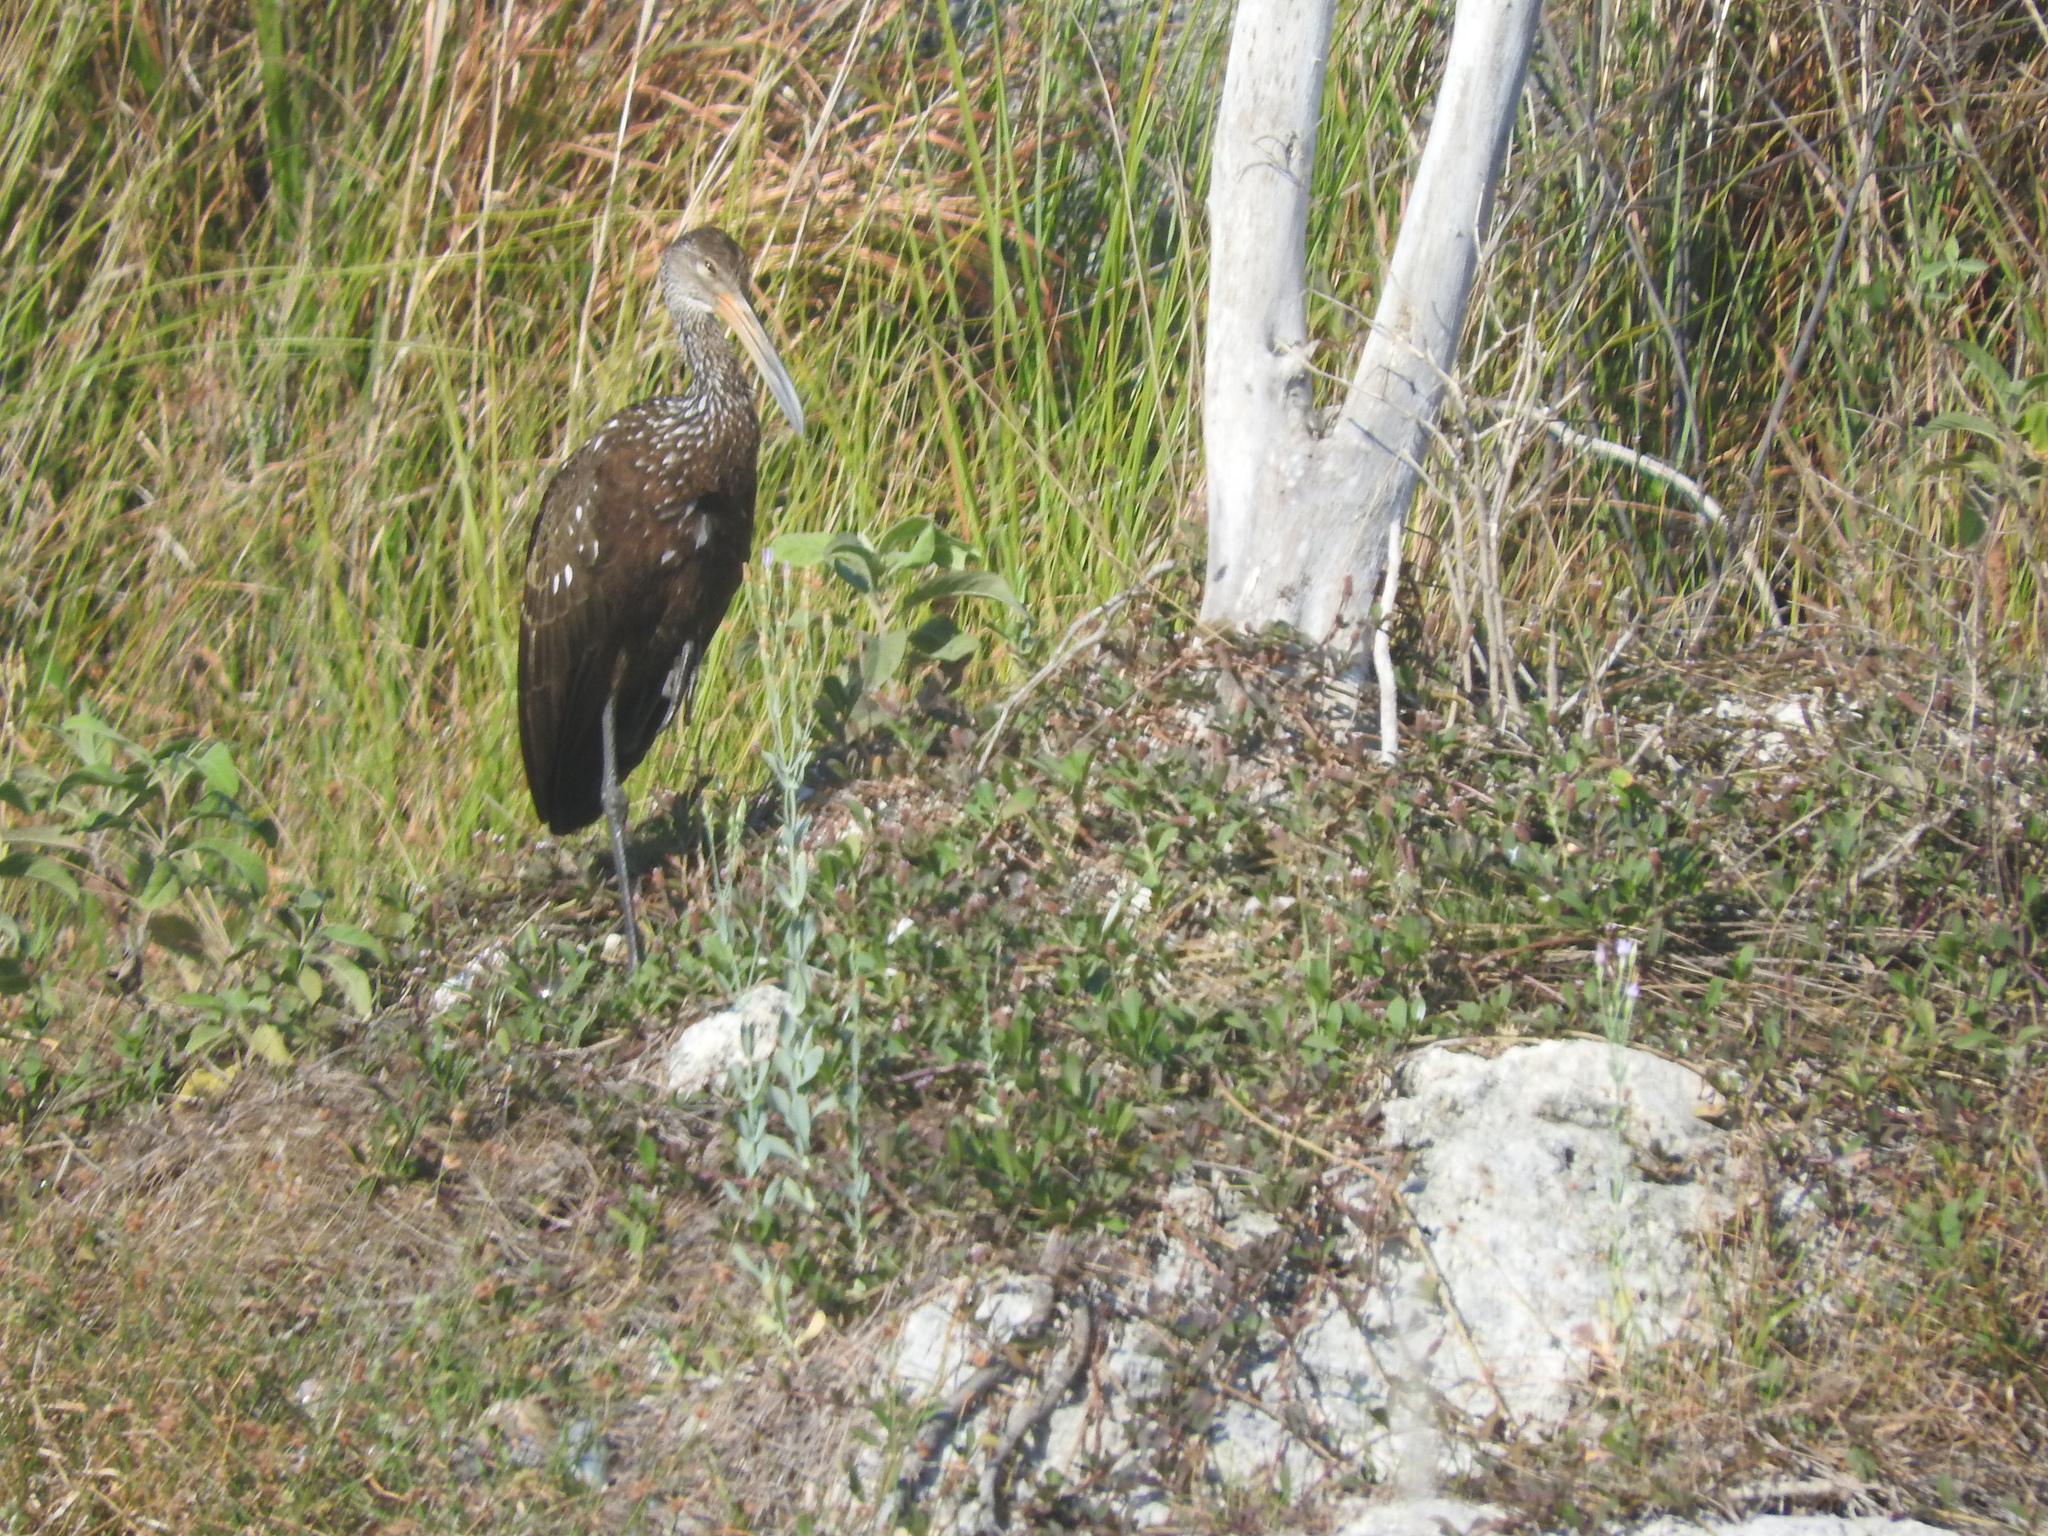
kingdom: Animalia
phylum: Chordata
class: Aves
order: Gruiformes
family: Aramidae
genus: Aramus
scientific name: Aramus guarauna
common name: Limpkin
